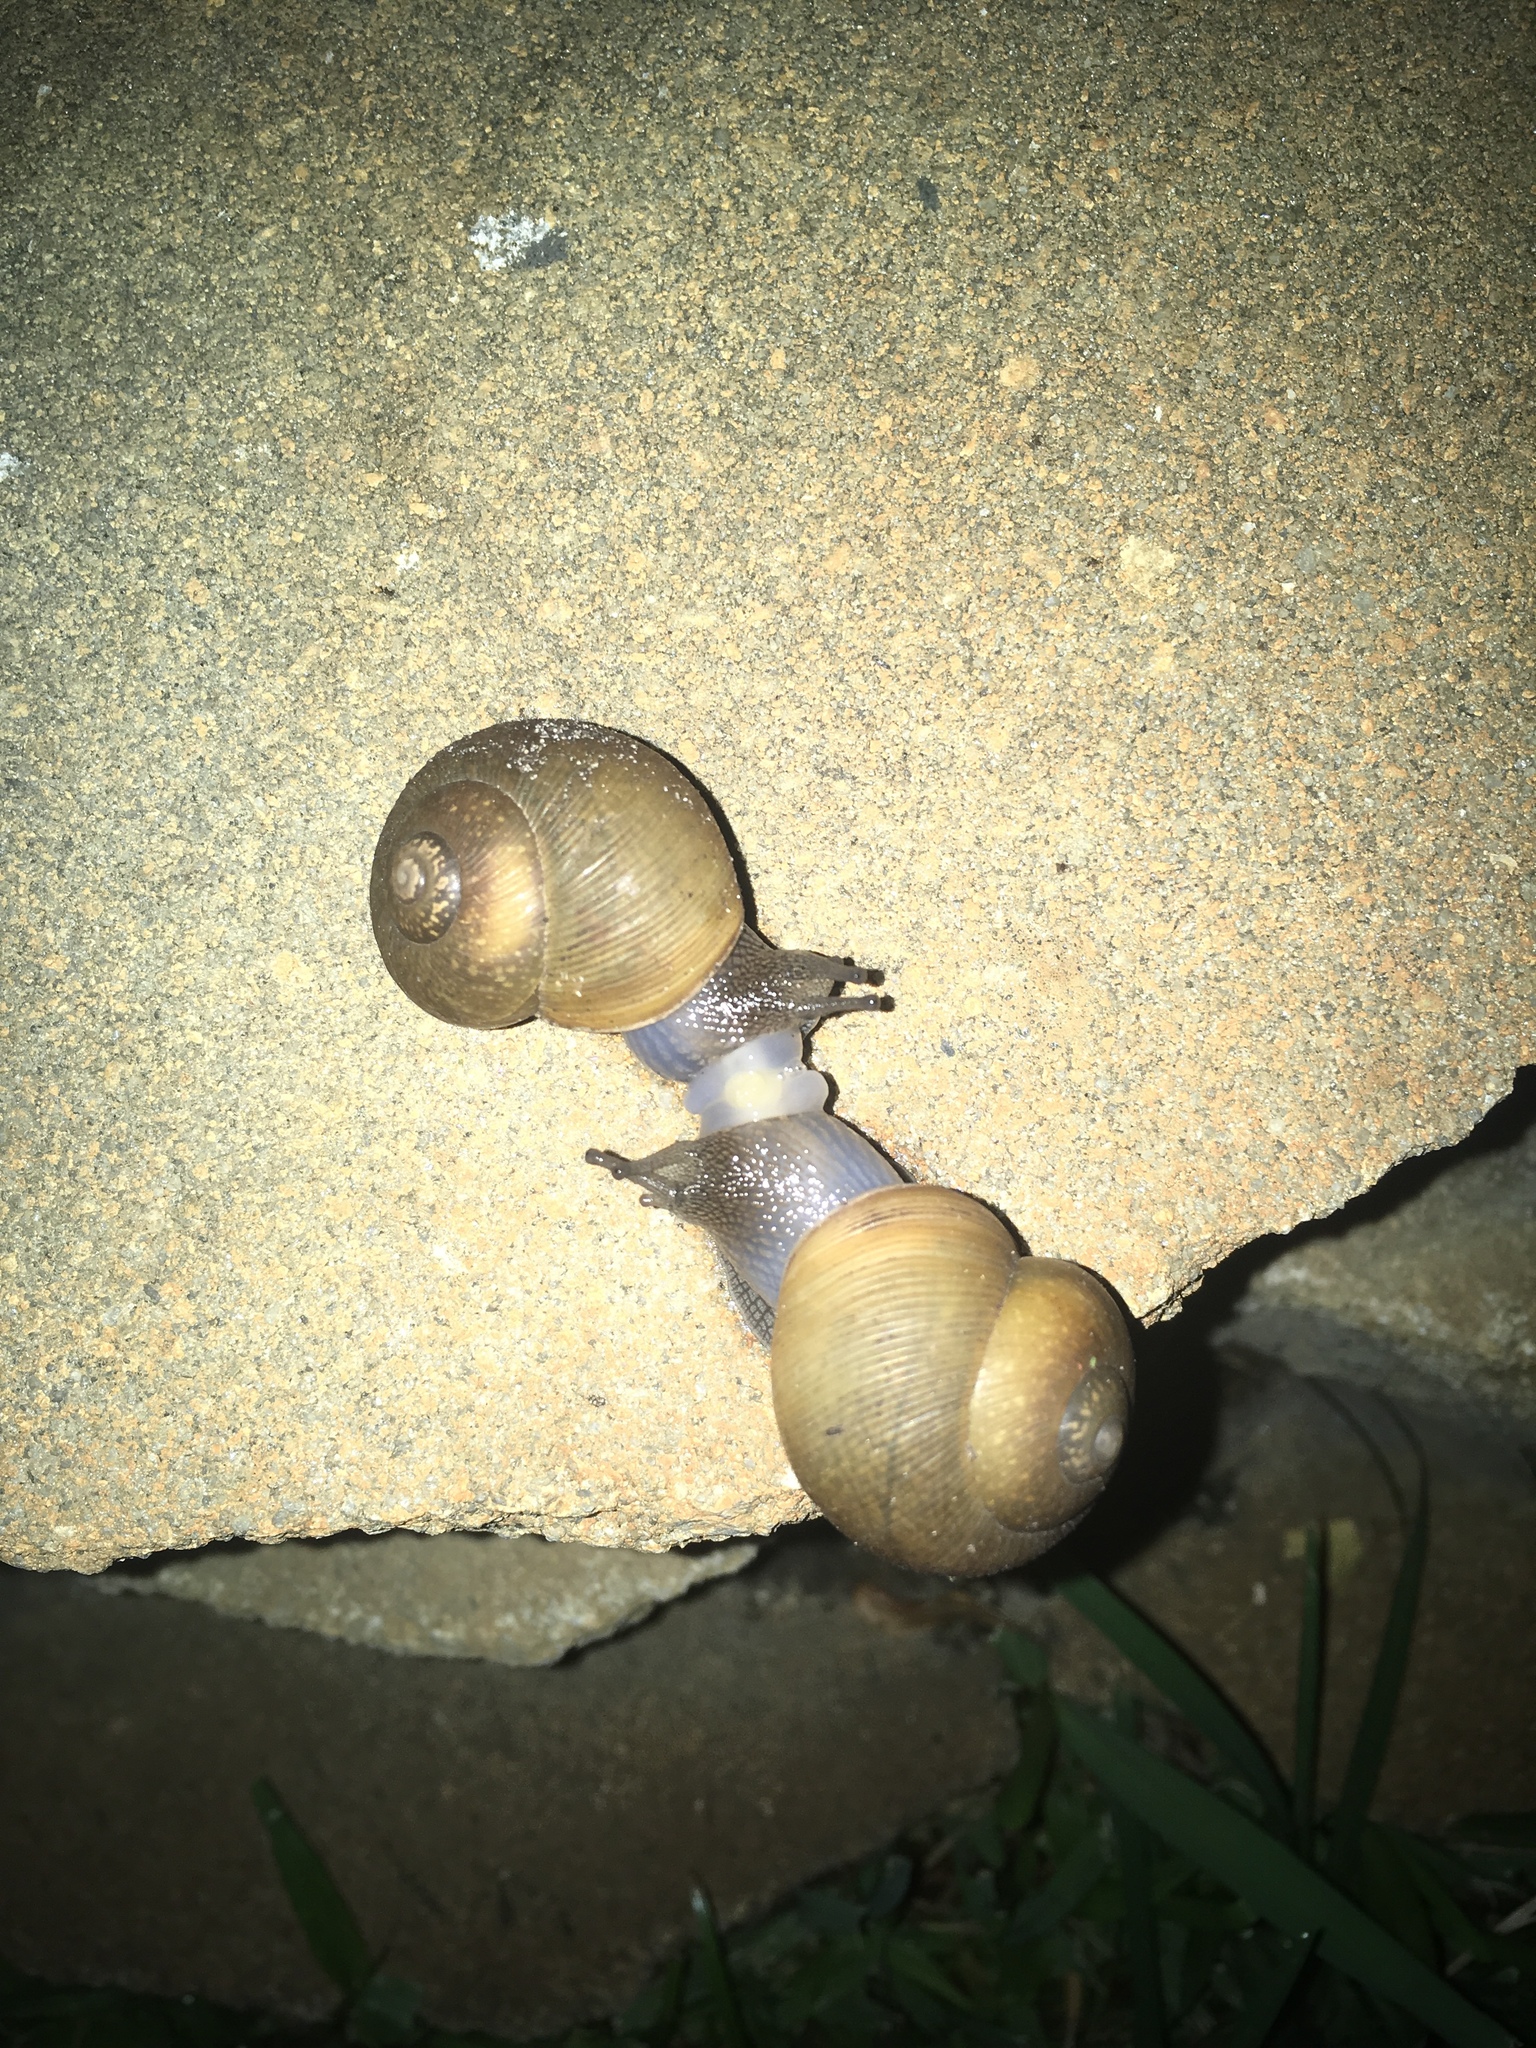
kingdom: Animalia
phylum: Mollusca
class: Gastropoda
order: Stylommatophora
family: Zachrysiidae
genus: Zachrysia
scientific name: Zachrysia provisoria
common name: Garden zachrysia
